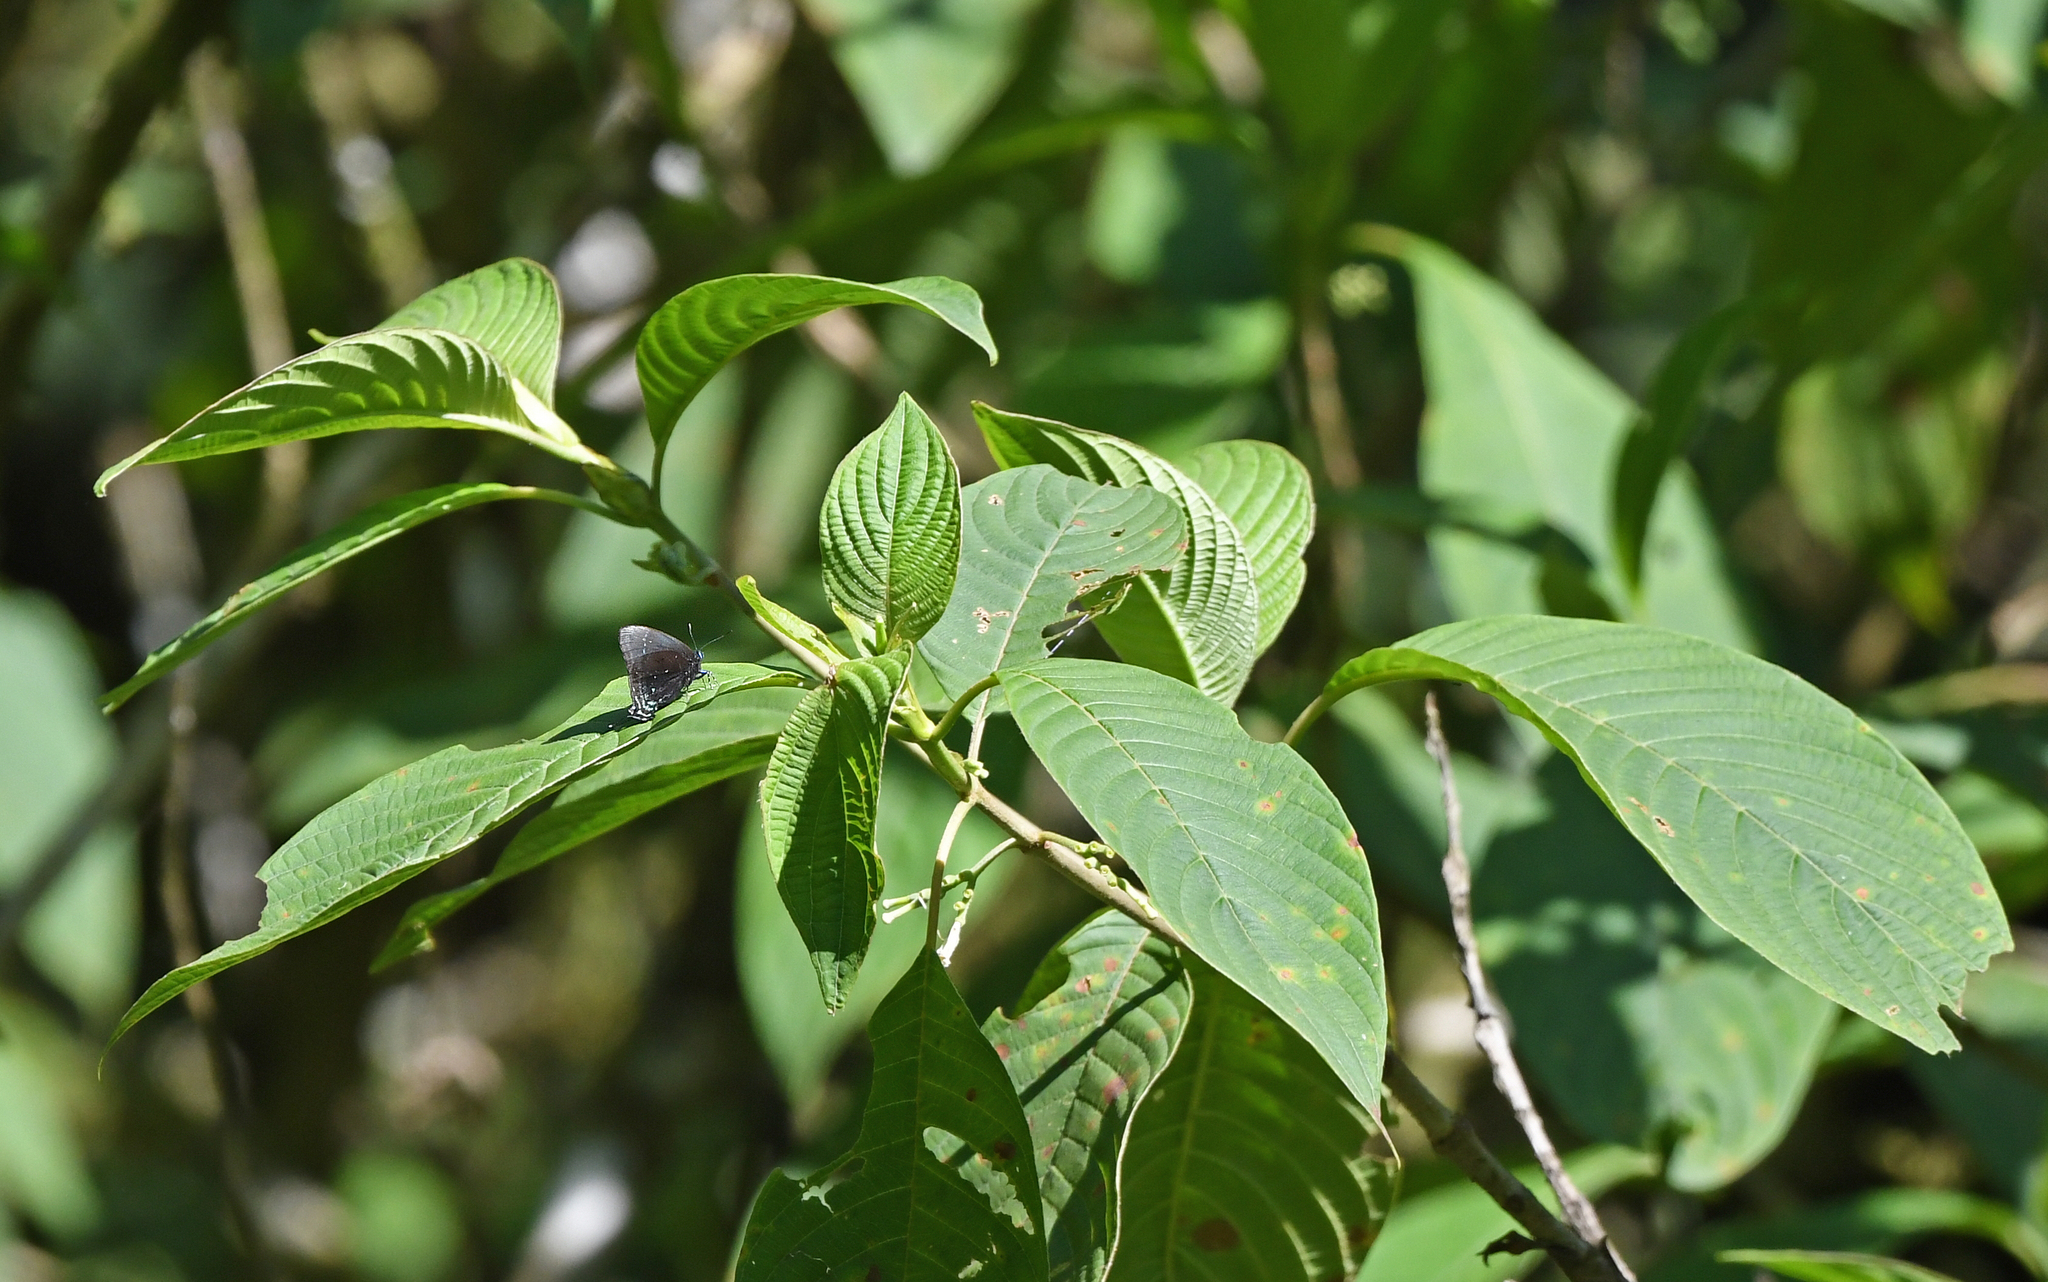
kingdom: Animalia
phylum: Arthropoda
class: Insecta
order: Lepidoptera
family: Lycaenidae
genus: Denivia
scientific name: Denivia
